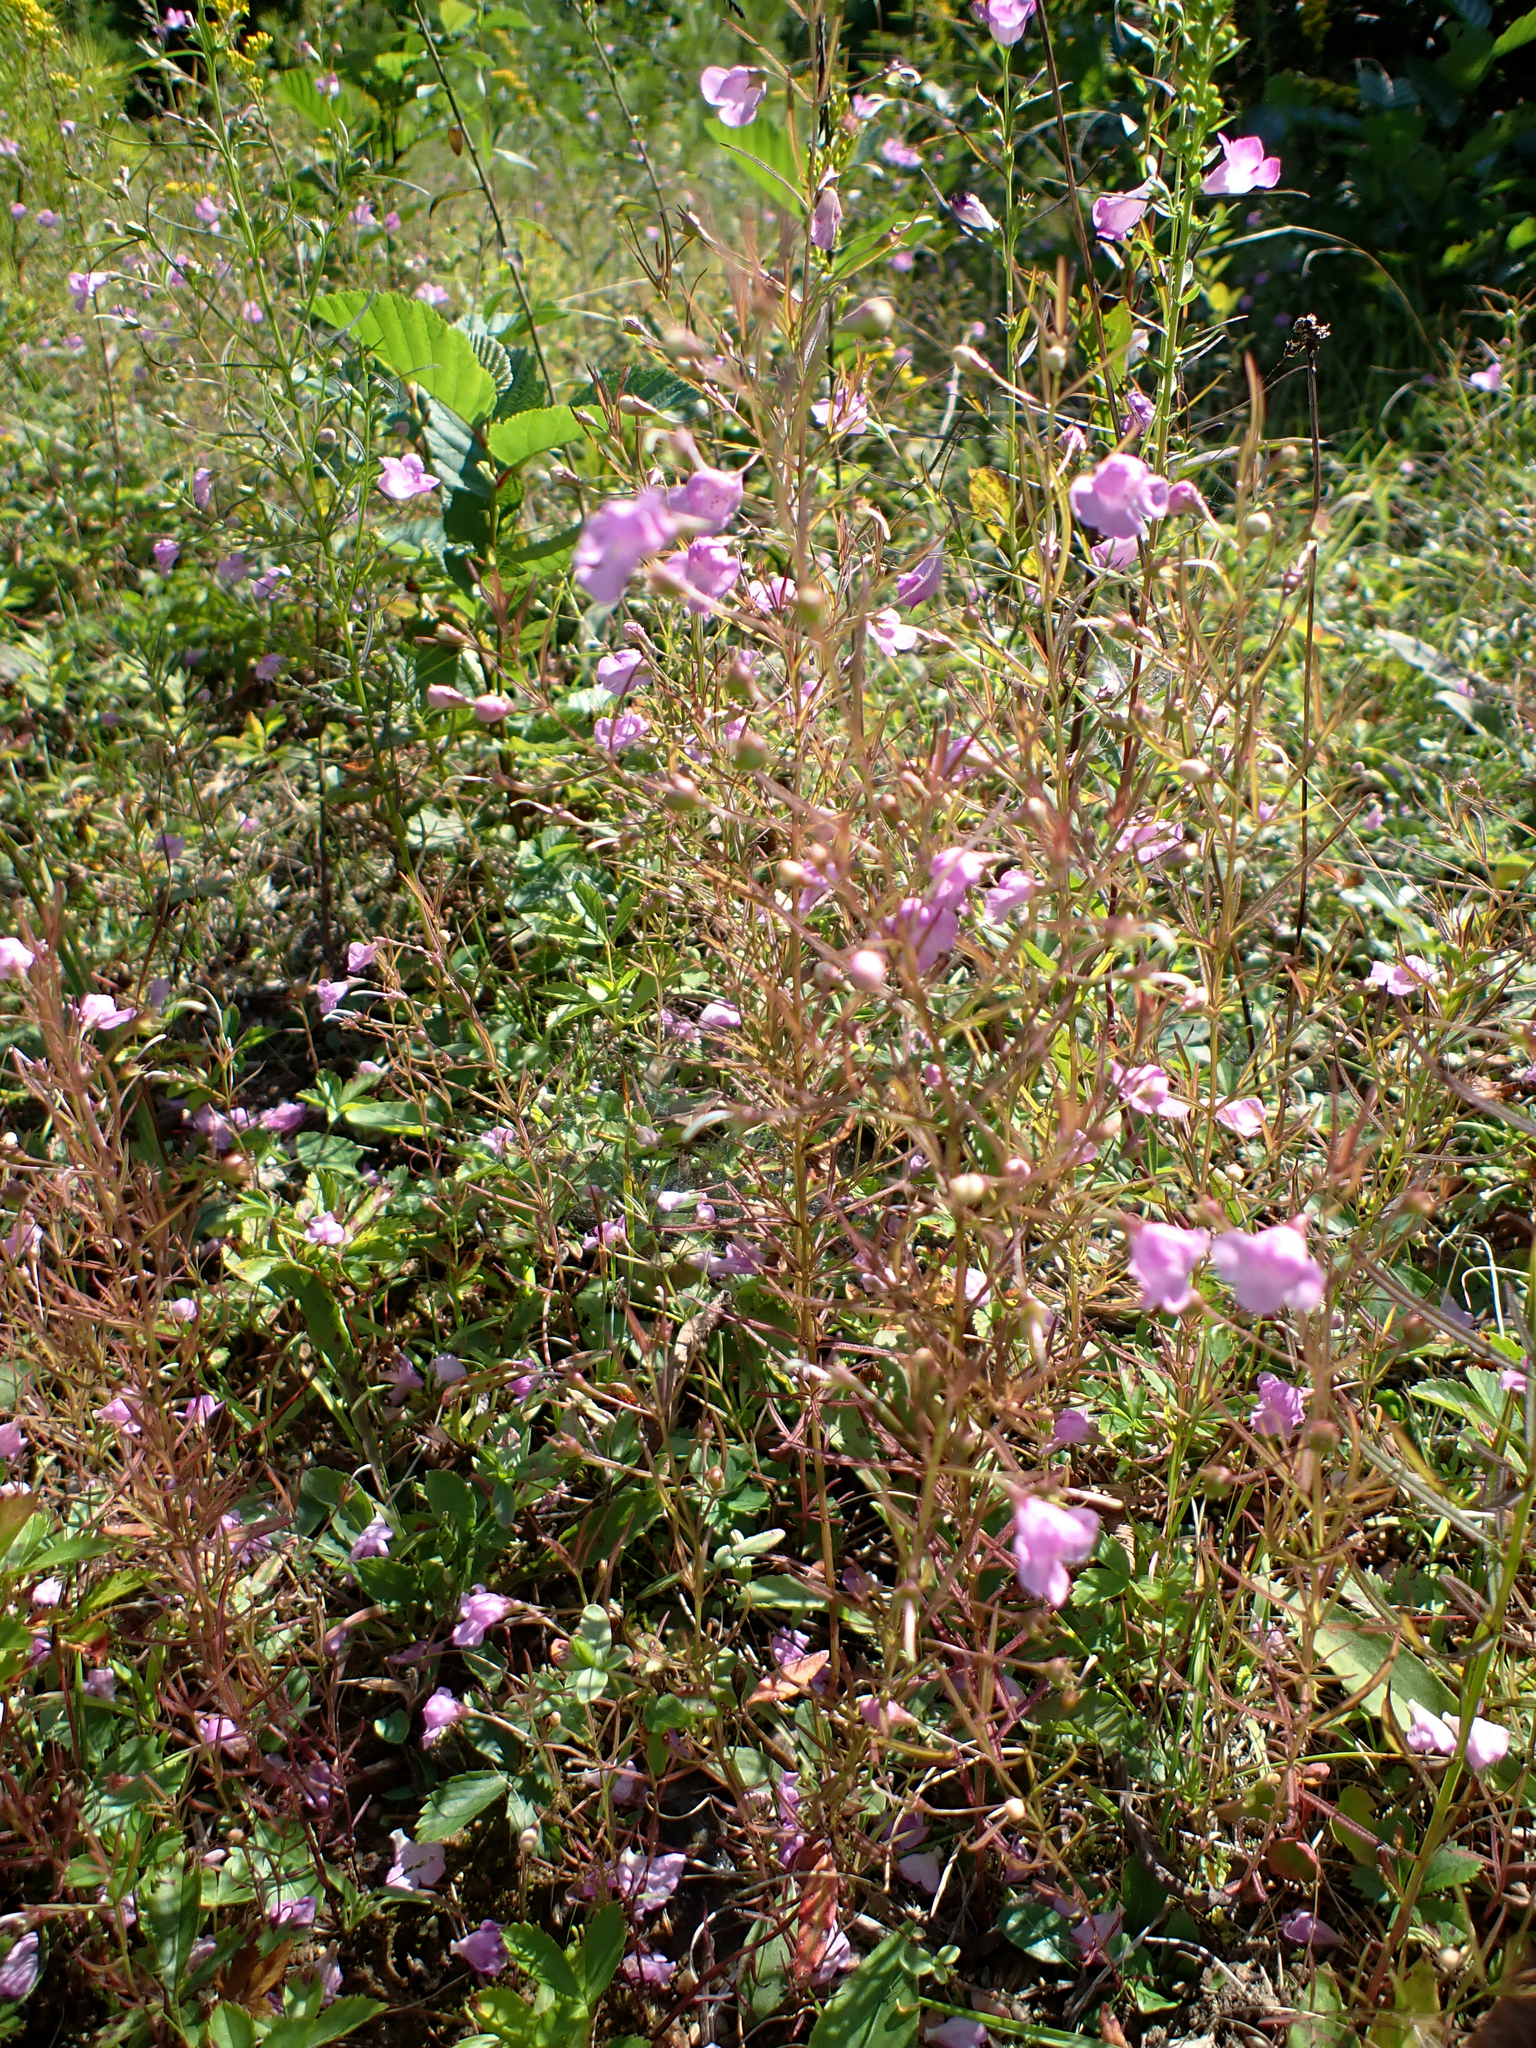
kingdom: Plantae
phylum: Tracheophyta
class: Magnoliopsida
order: Lamiales
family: Orobanchaceae
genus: Agalinis
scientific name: Agalinis purpurea
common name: Purple false foxglove
